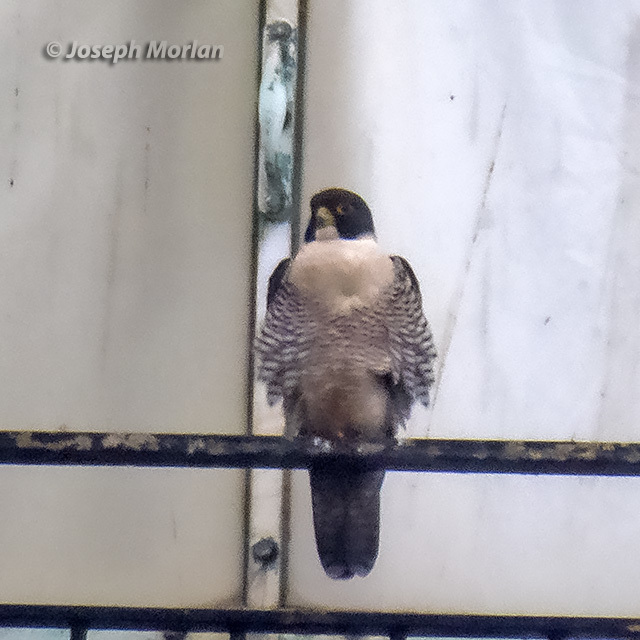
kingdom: Animalia
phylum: Chordata
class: Aves
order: Falconiformes
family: Falconidae
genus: Falco
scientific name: Falco peregrinus
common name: Peregrine falcon
